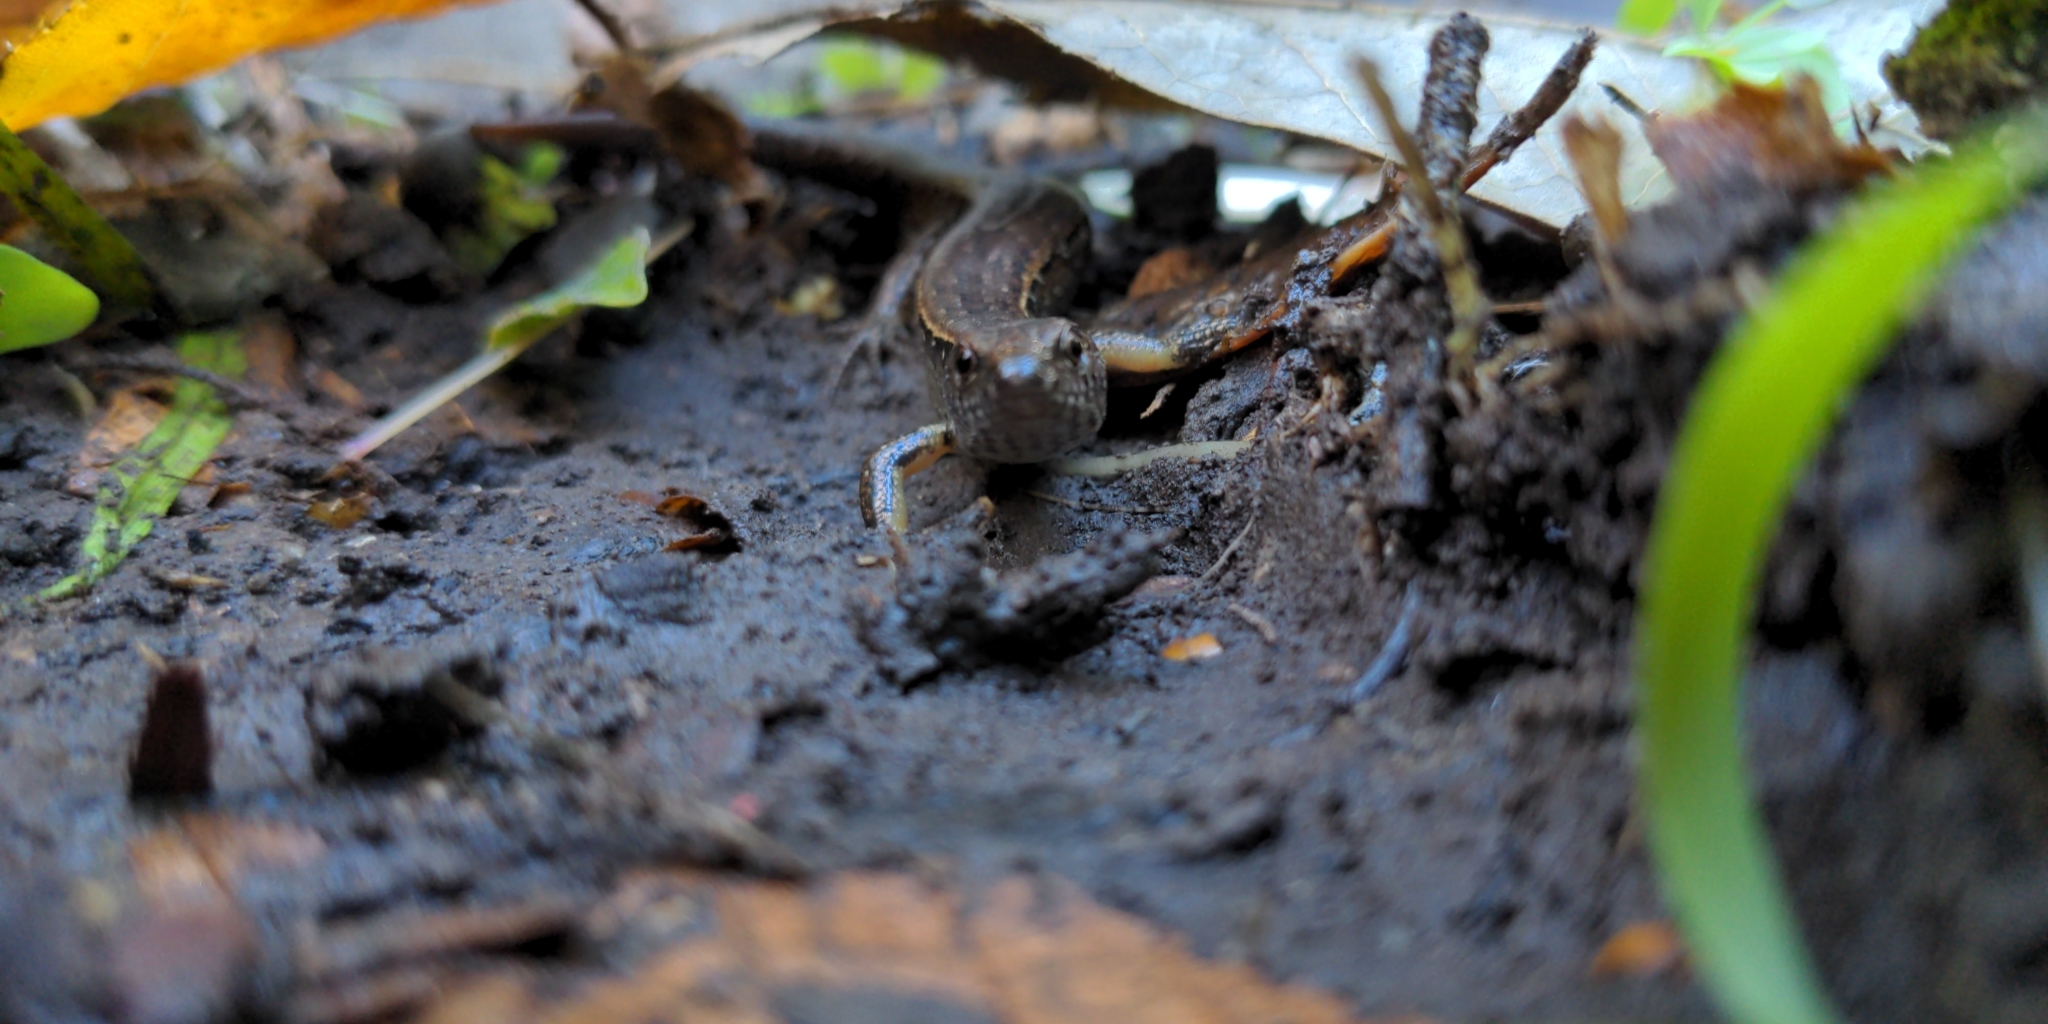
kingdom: Animalia
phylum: Chordata
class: Squamata
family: Scincidae
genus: Oligosoma
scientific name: Oligosoma aeneum
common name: Copper skink
